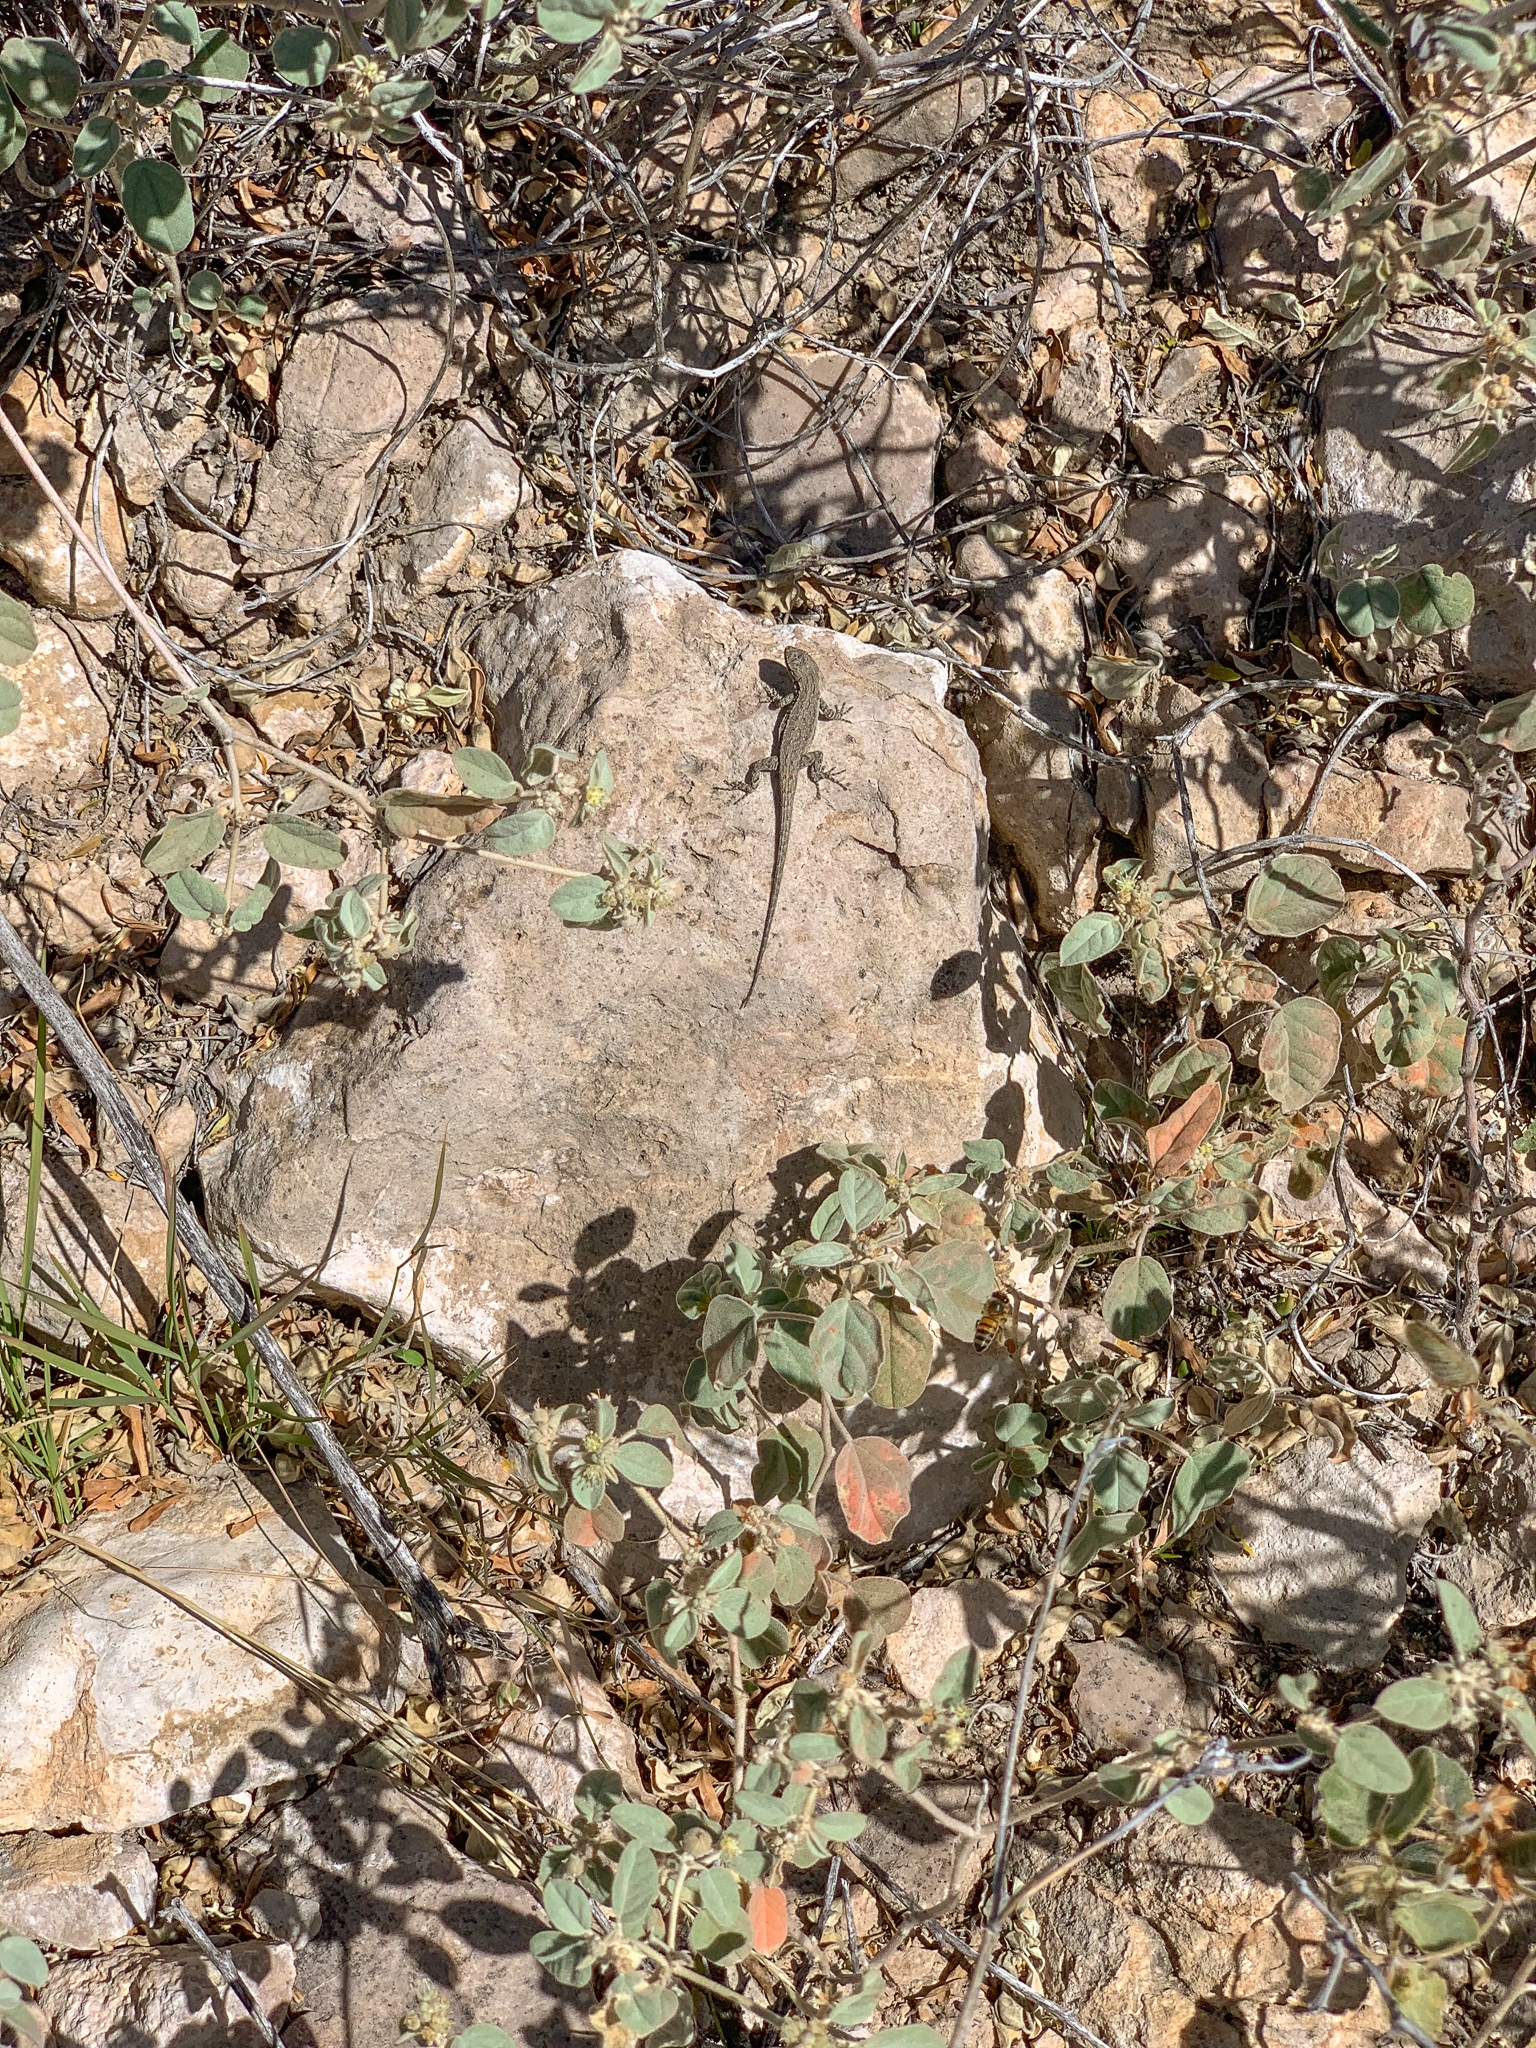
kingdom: Animalia
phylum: Chordata
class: Squamata
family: Phrynosomatidae
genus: Urosaurus
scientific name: Urosaurus ornatus
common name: Ornate tree lizard
